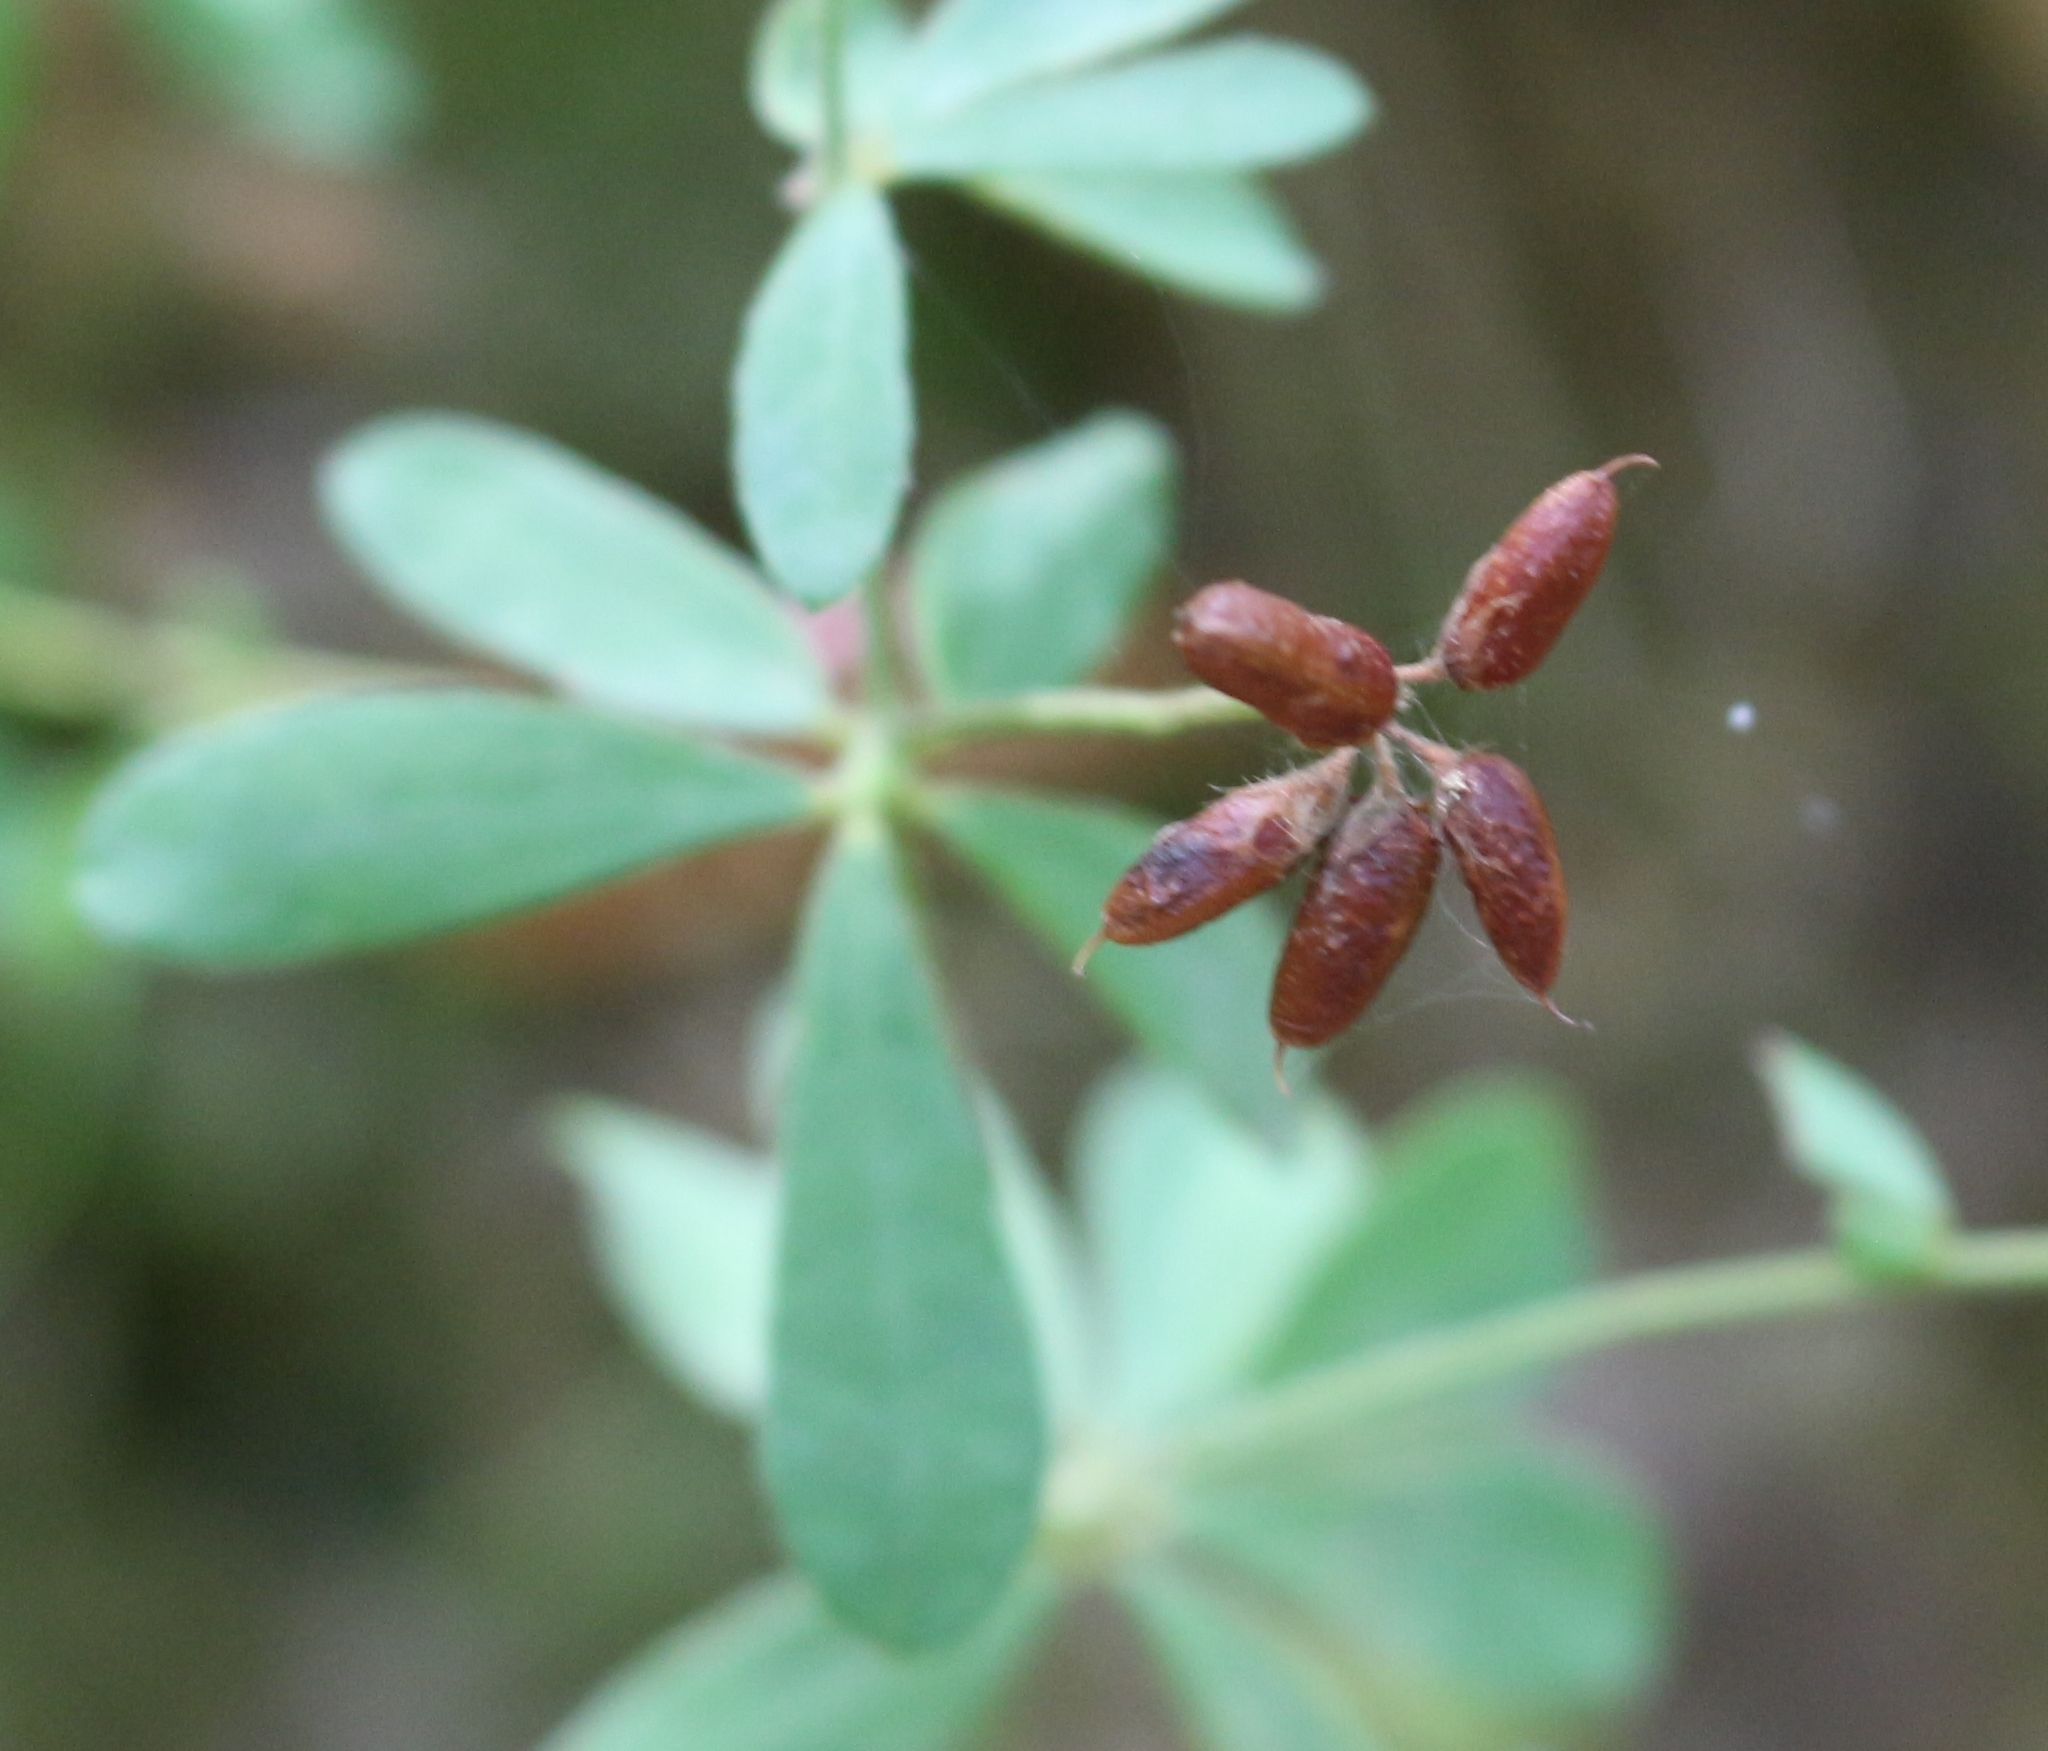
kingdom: Plantae
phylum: Tracheophyta
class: Magnoliopsida
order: Fabales
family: Fabaceae
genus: Lotus
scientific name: Lotus graecus
